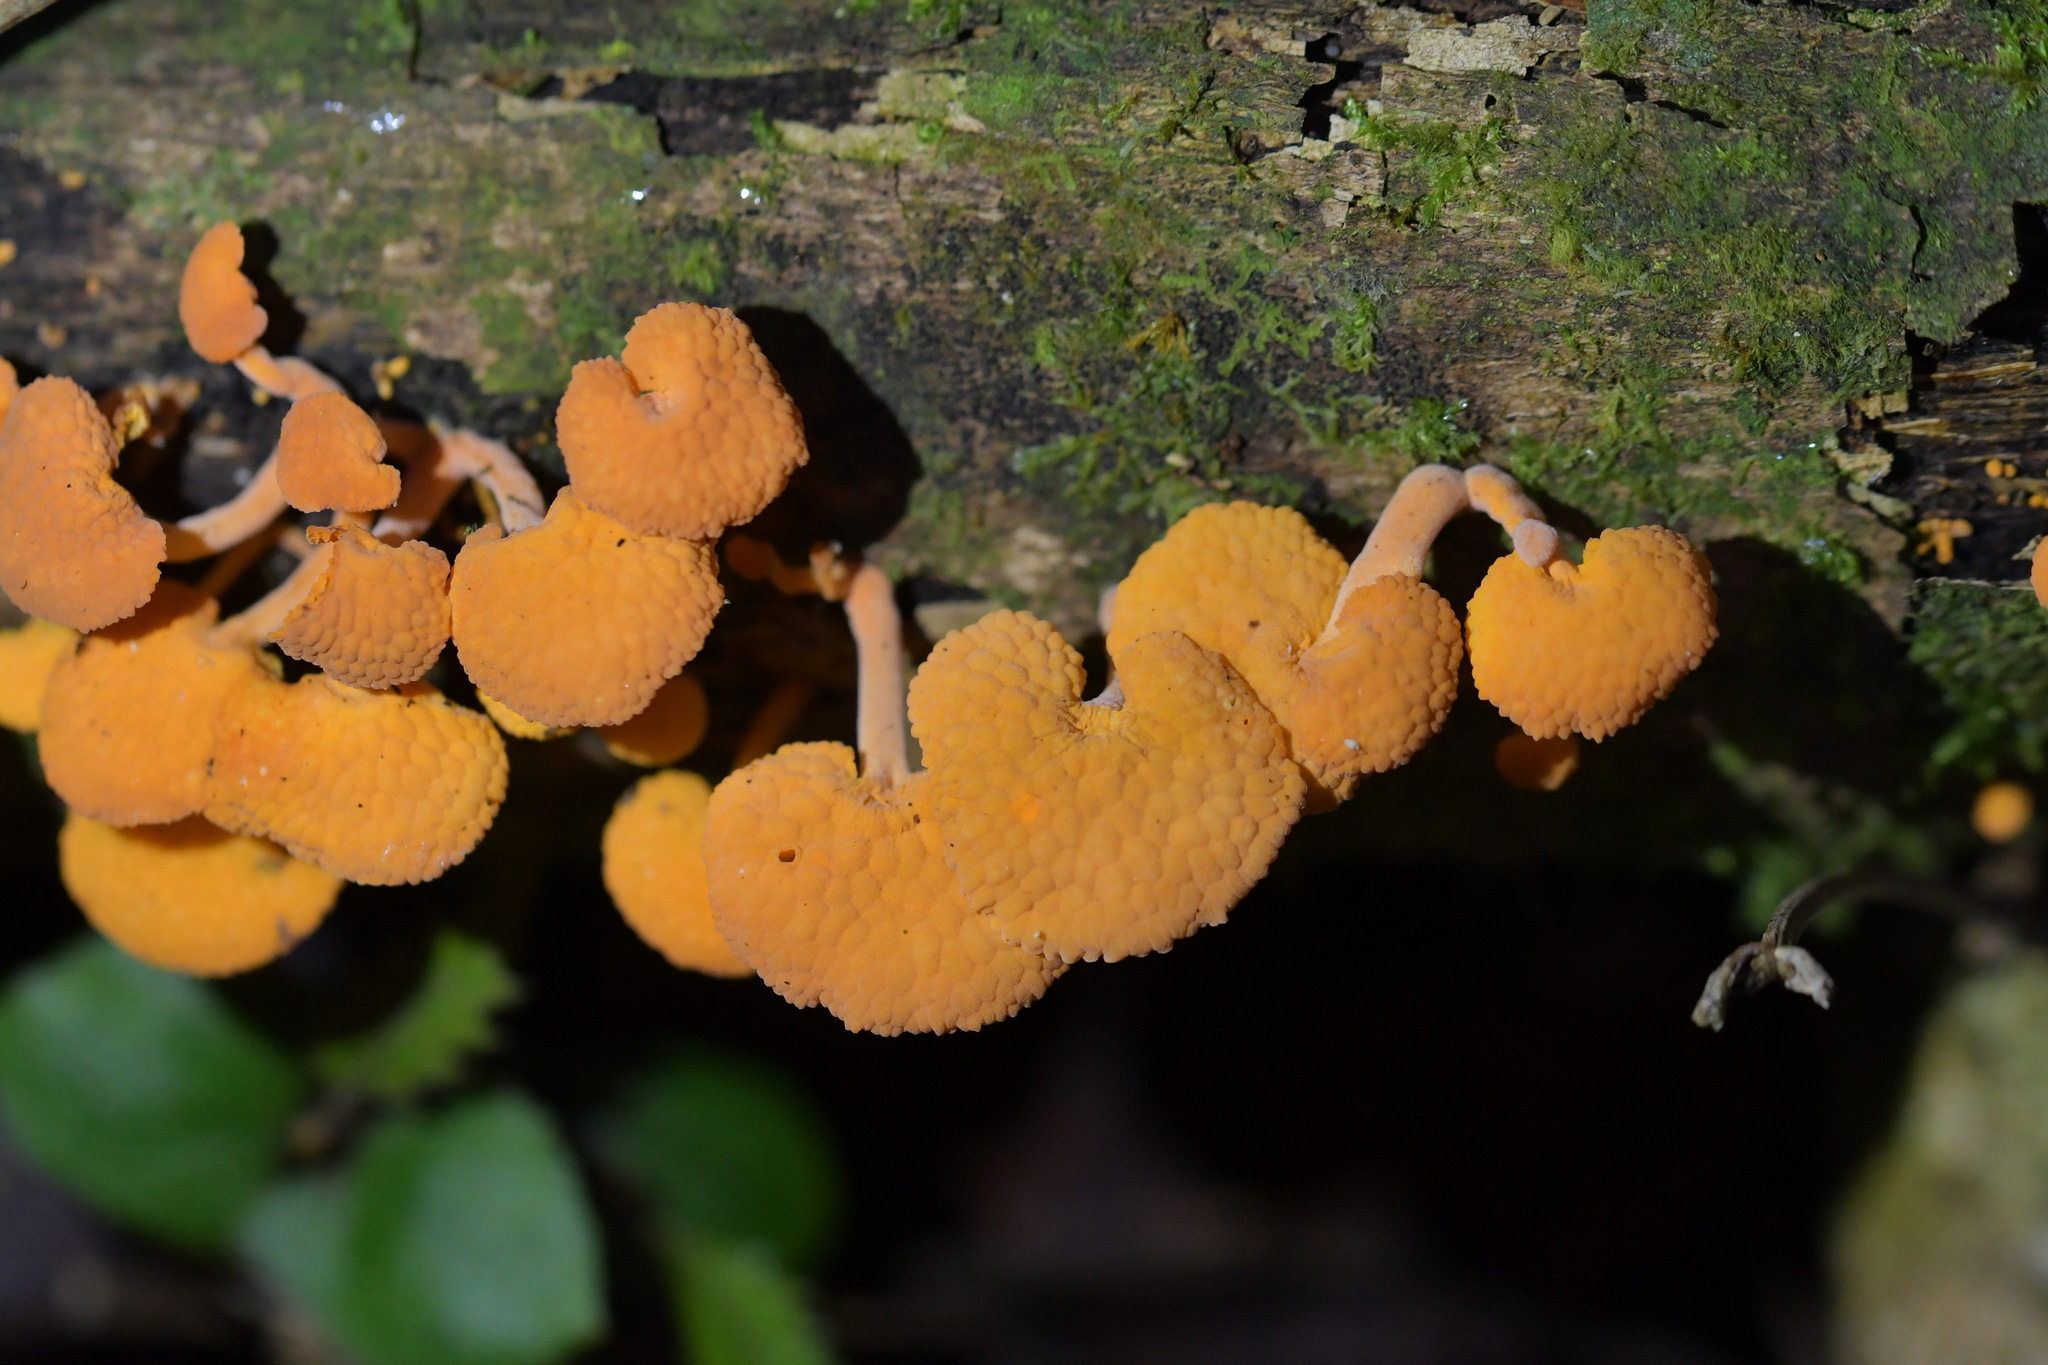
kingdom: Fungi
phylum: Basidiomycota
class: Agaricomycetes
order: Agaricales
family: Mycenaceae
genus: Favolaschia
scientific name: Favolaschia claudopus
